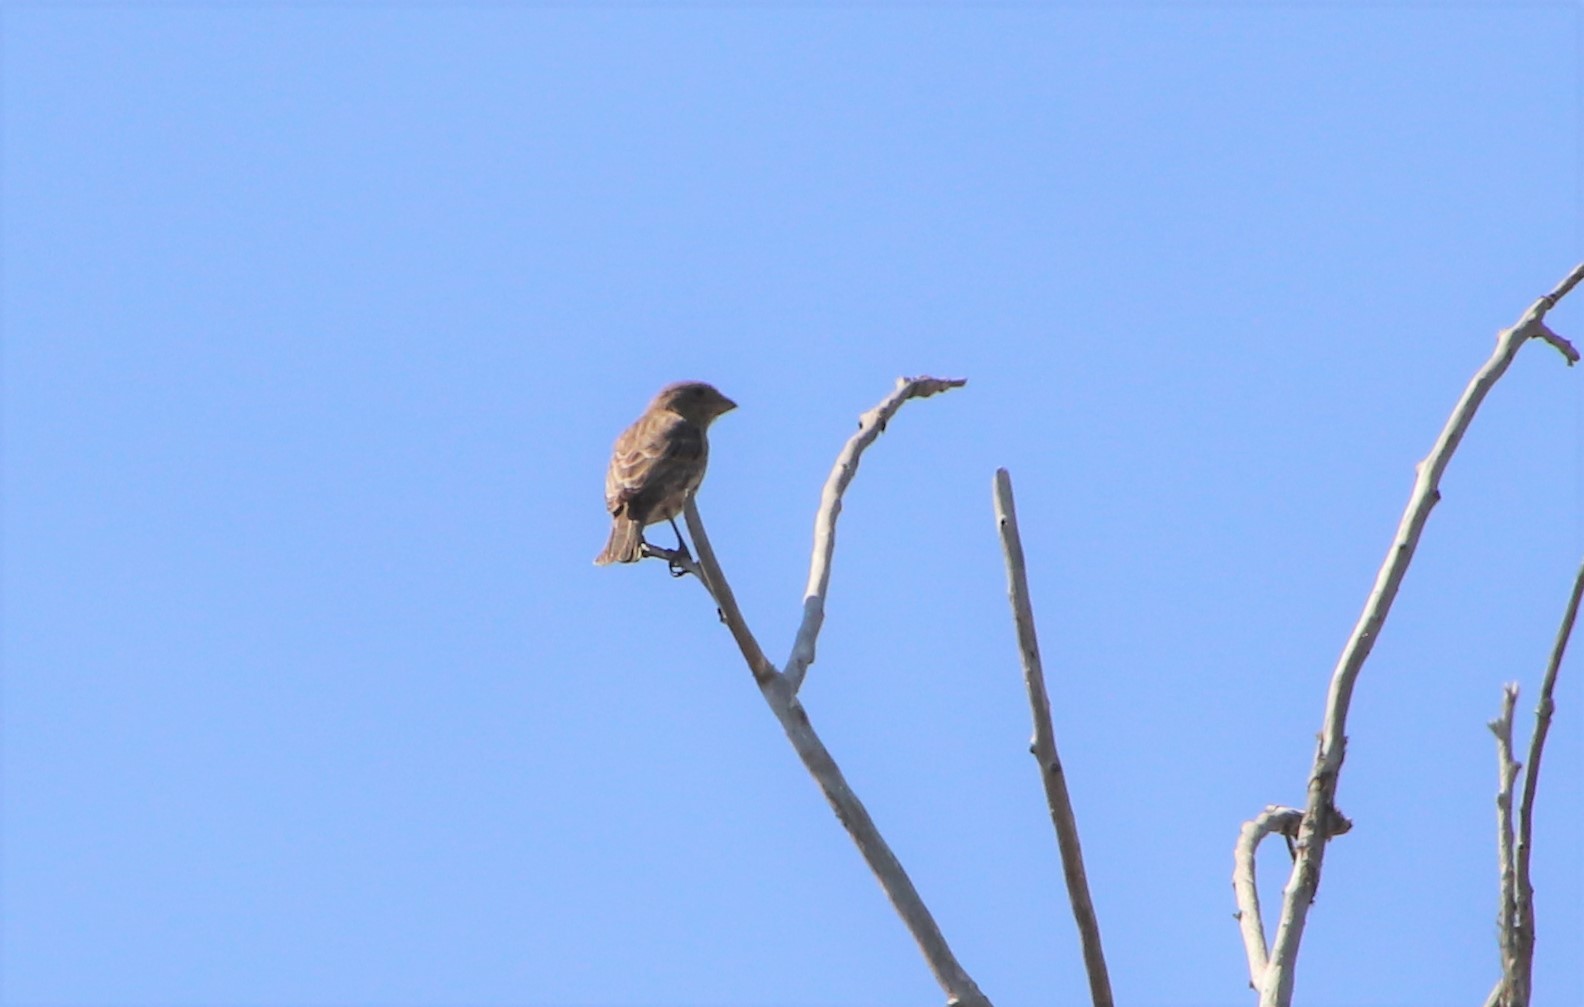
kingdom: Animalia
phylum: Chordata
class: Aves
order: Passeriformes
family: Fringillidae
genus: Haemorhous
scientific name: Haemorhous mexicanus
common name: House finch
